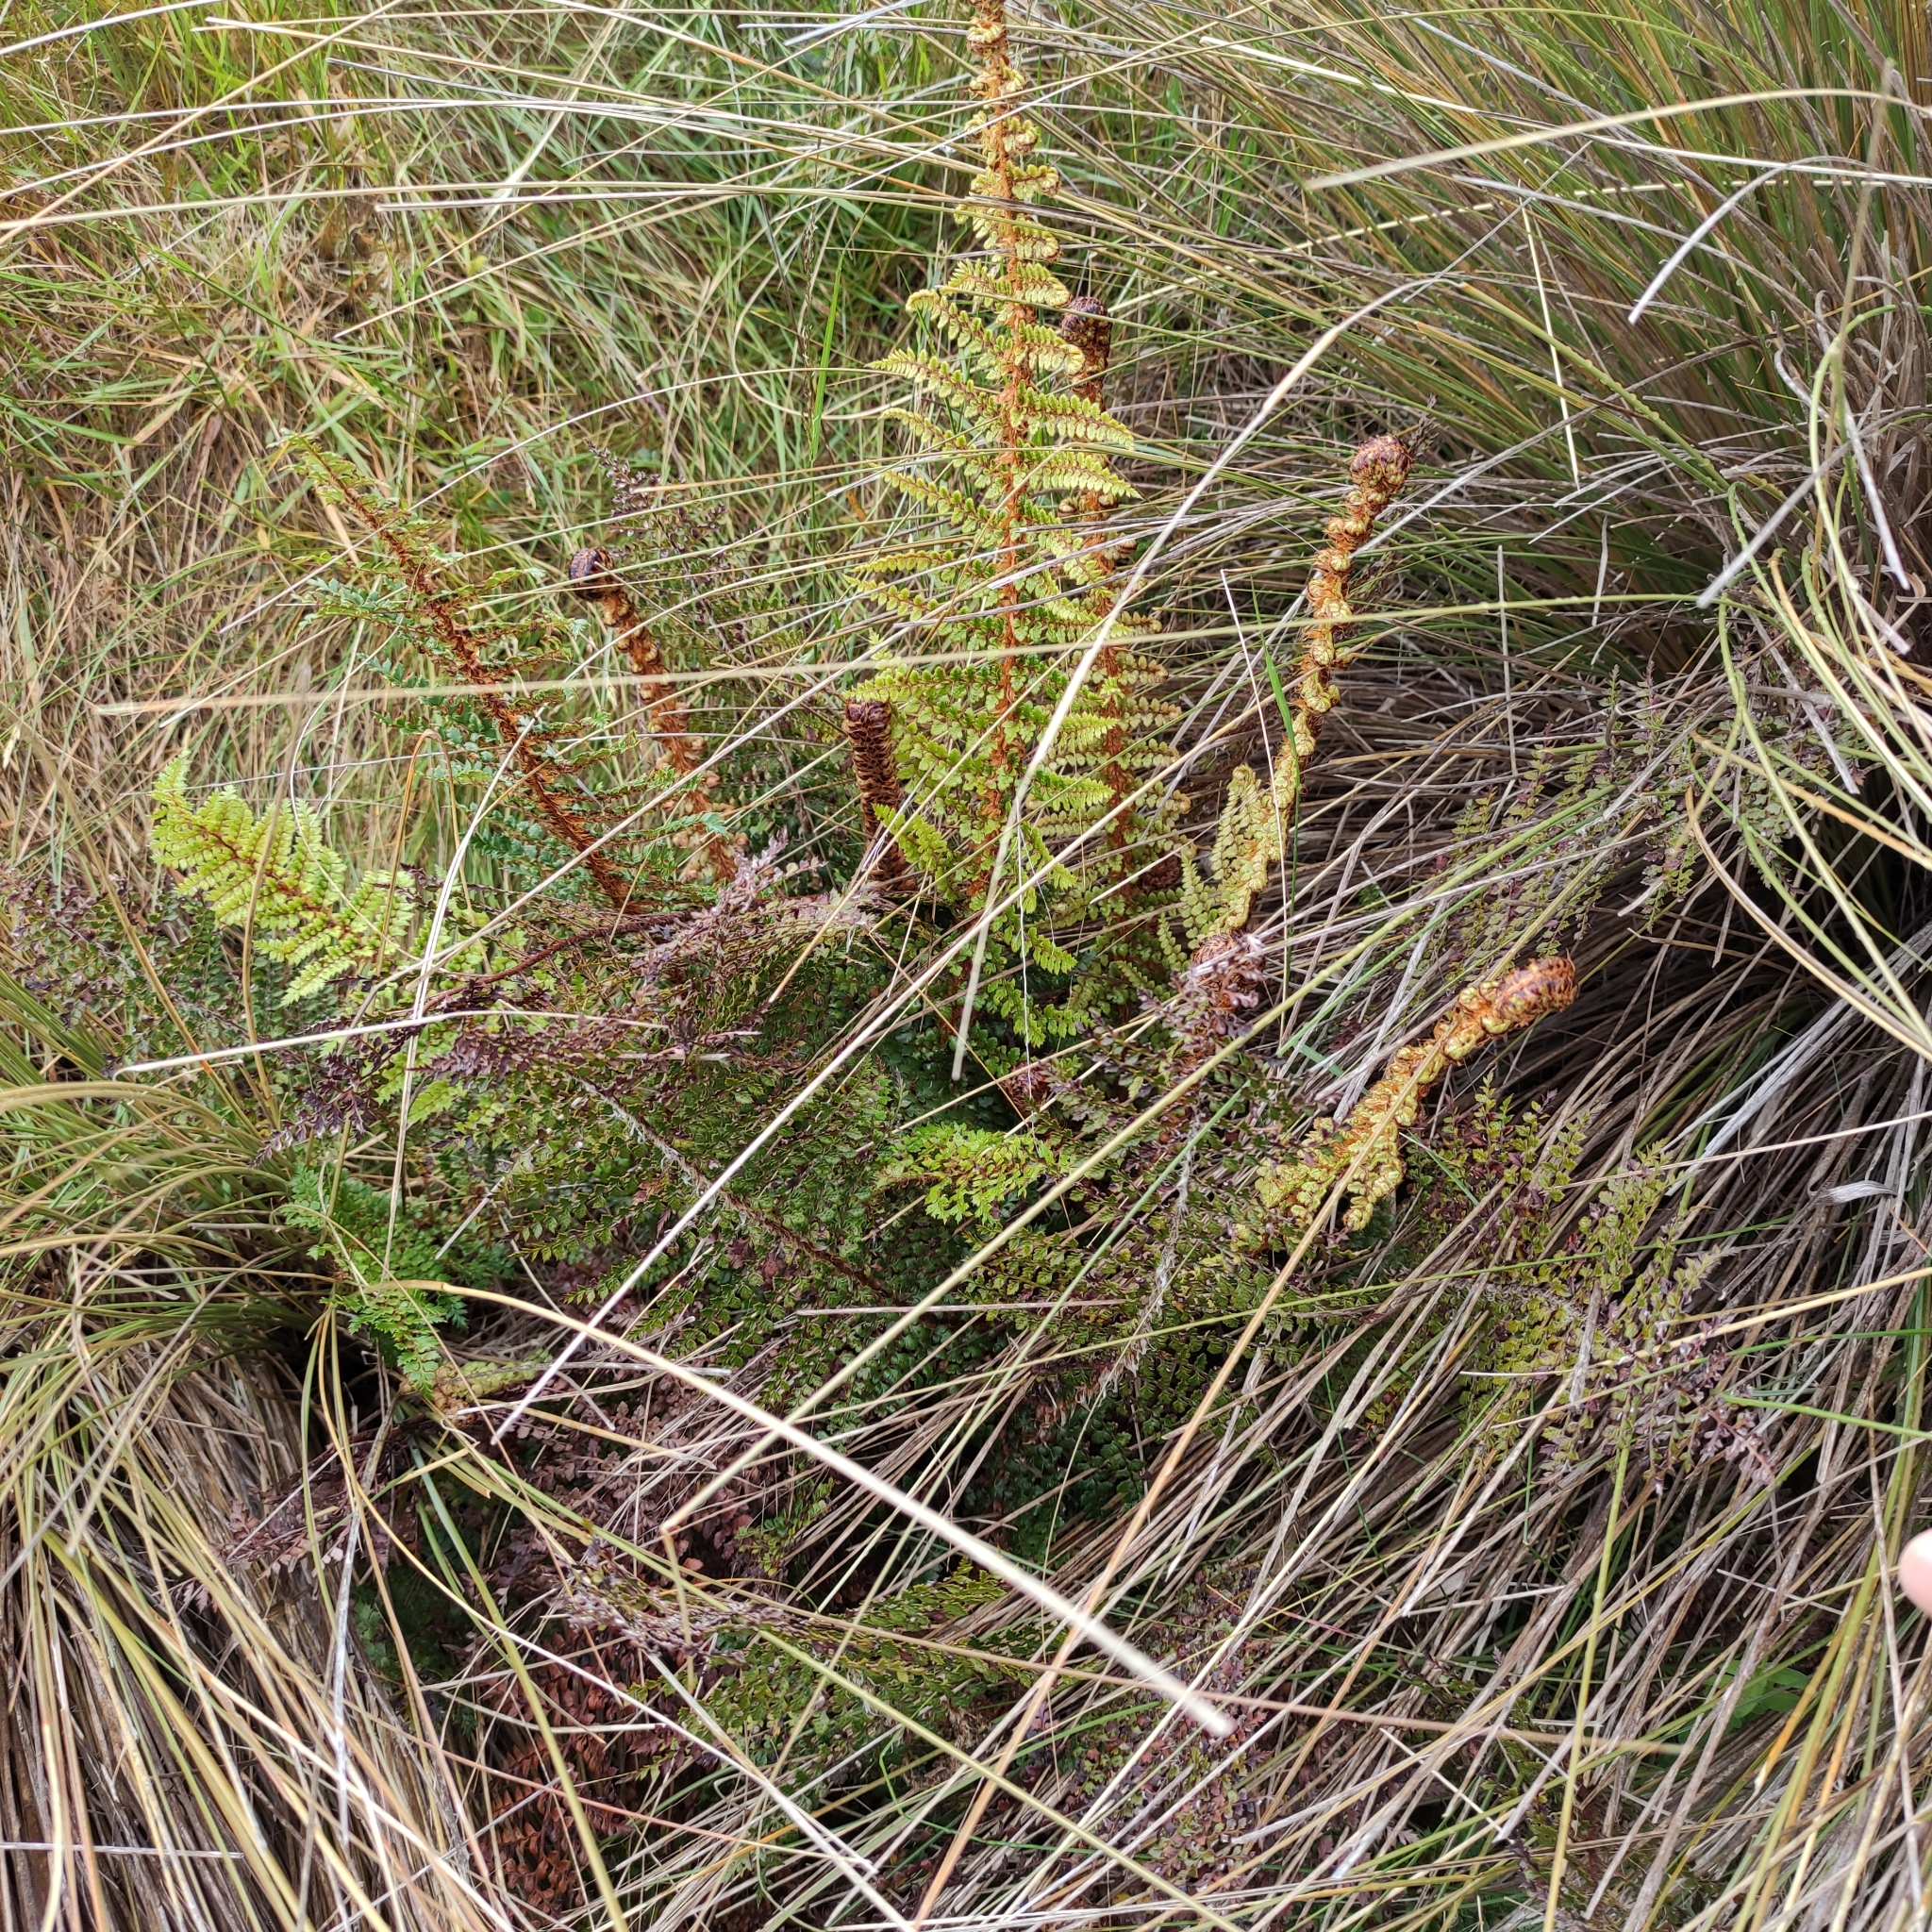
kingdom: Plantae
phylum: Tracheophyta
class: Polypodiopsida
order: Polypodiales
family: Dryopteridaceae
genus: Polystichum
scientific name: Polystichum vestitum
